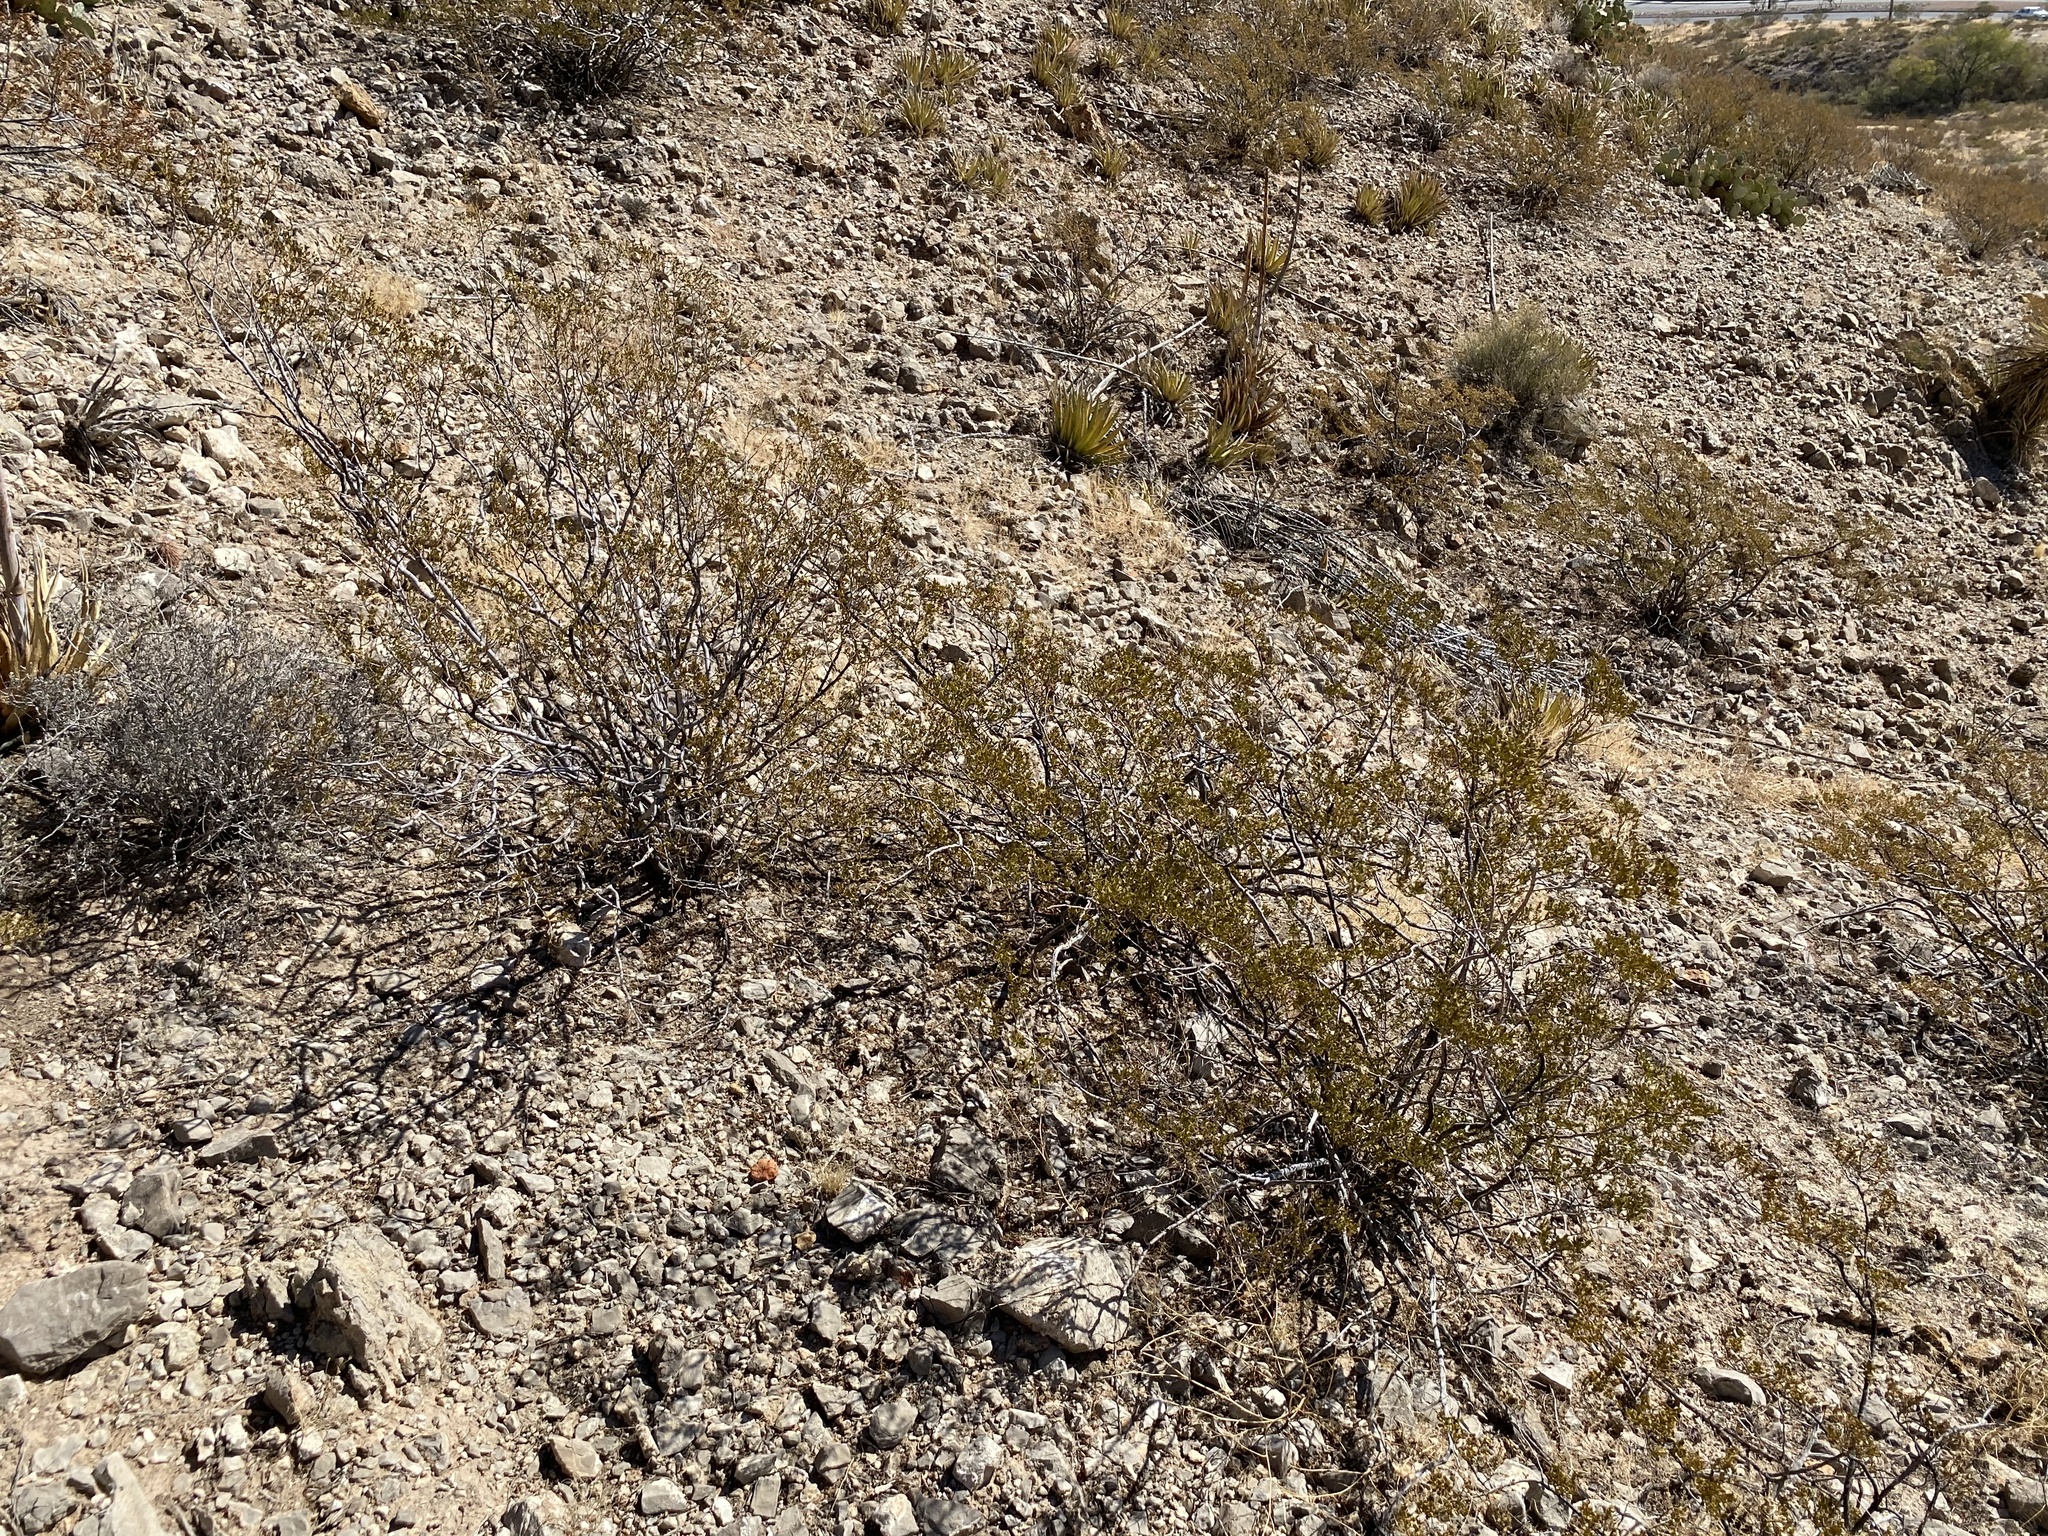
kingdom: Plantae
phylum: Tracheophyta
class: Magnoliopsida
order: Zygophyllales
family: Zygophyllaceae
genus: Larrea
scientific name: Larrea tridentata
